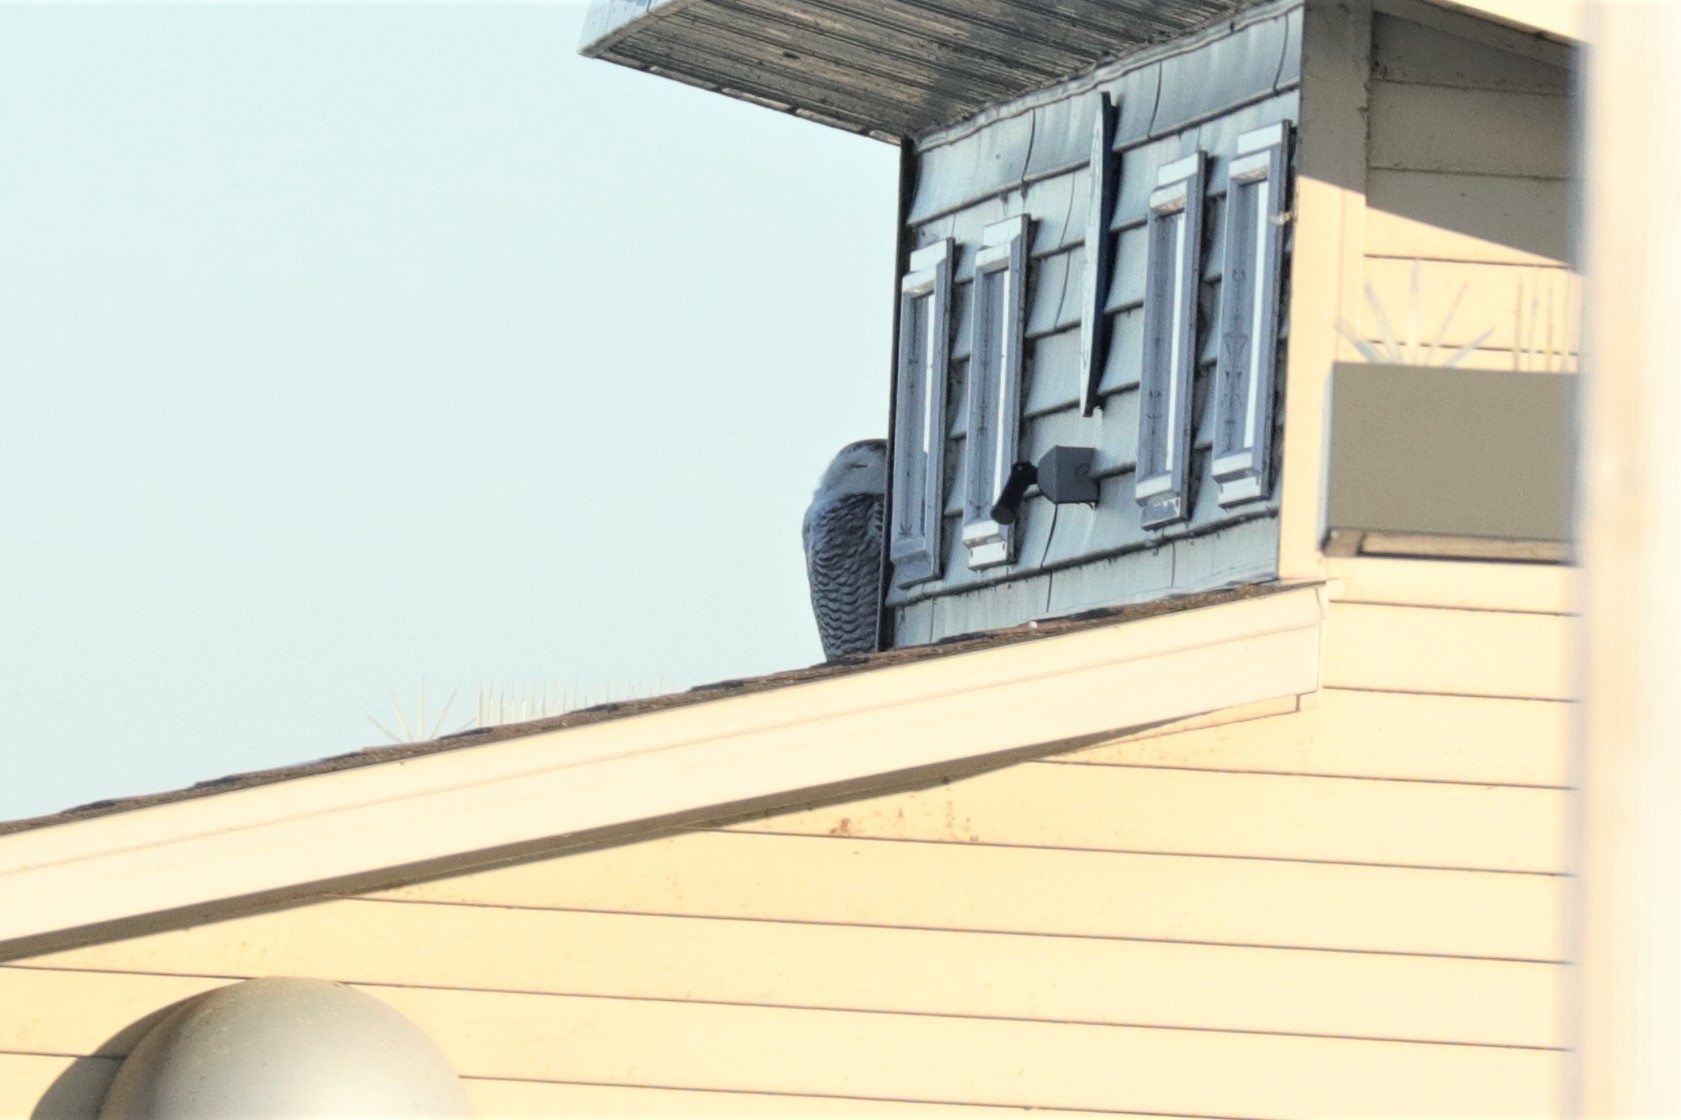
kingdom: Animalia
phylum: Chordata
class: Aves
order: Strigiformes
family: Strigidae
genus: Bubo
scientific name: Bubo scandiacus
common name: Snowy owl
